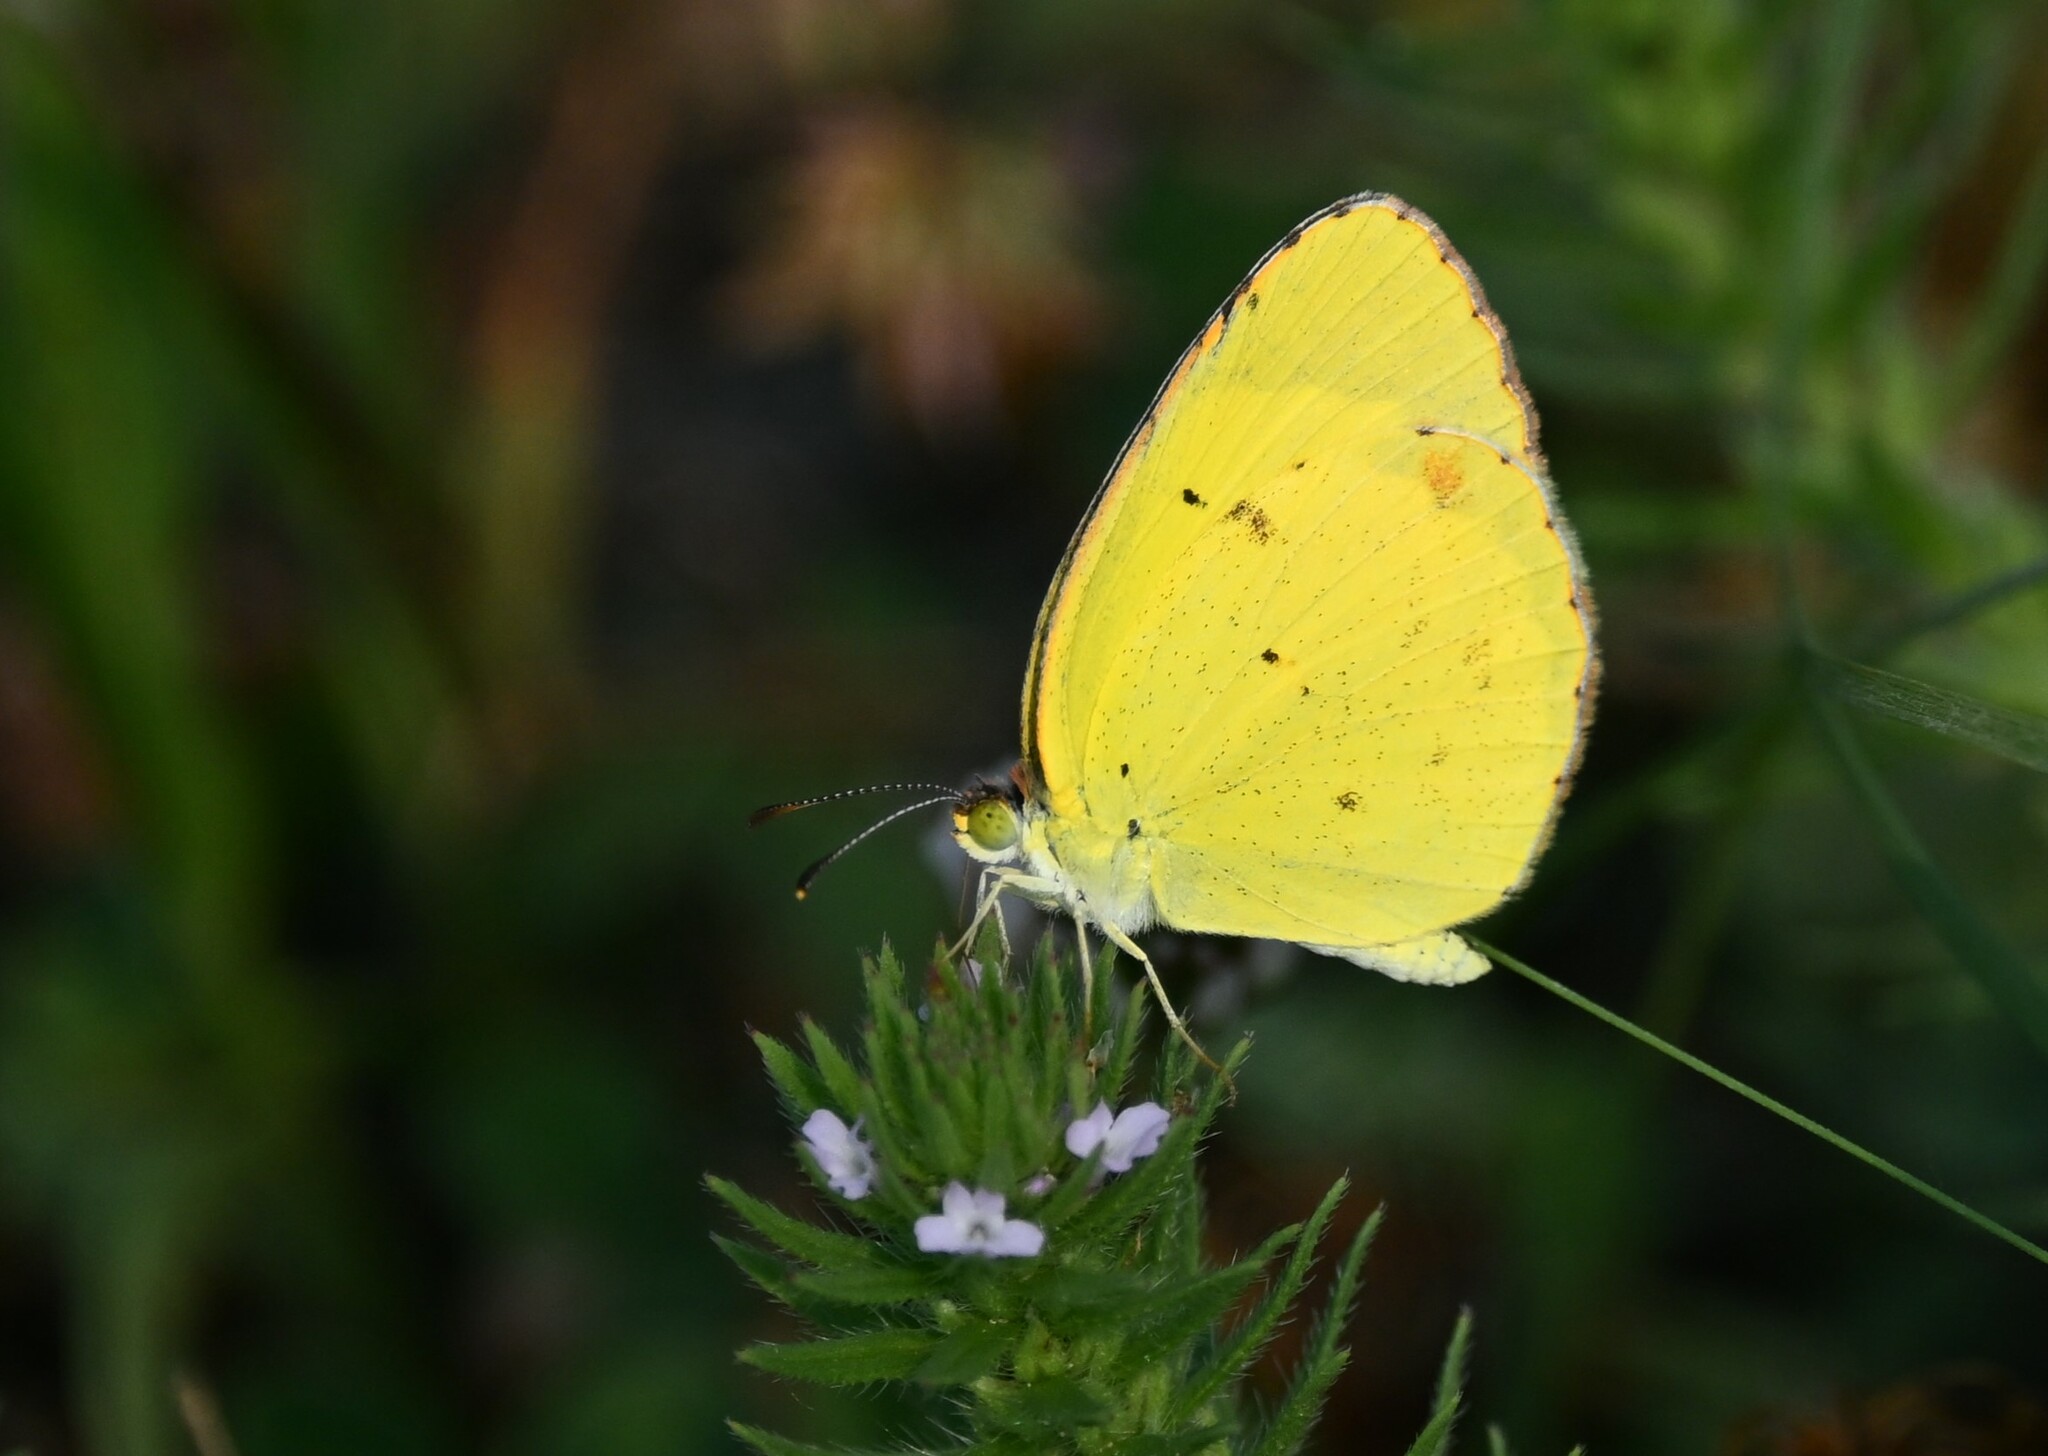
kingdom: Animalia
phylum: Arthropoda
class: Insecta
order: Lepidoptera
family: Pieridae
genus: Pyrisitia
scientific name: Pyrisitia lisa
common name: Little yellow
